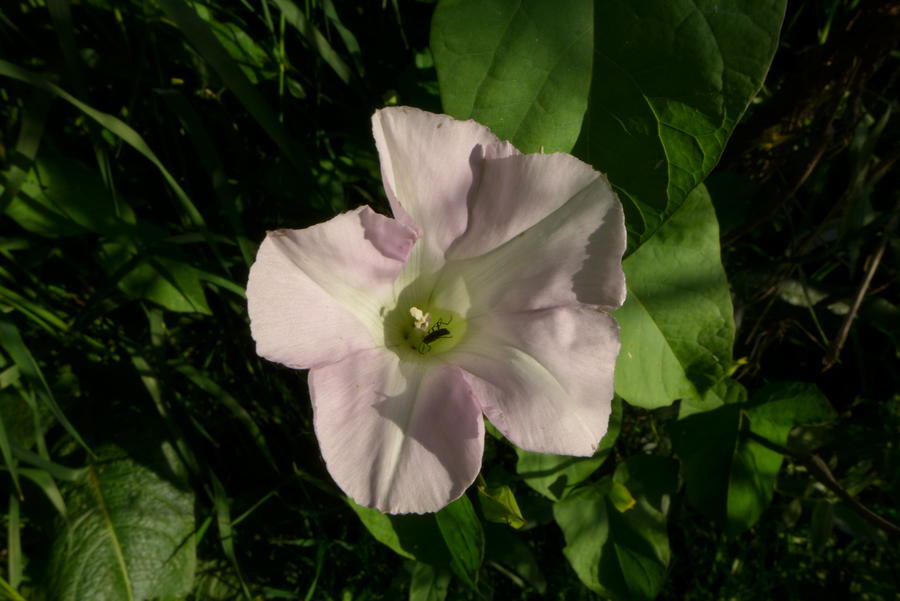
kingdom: Plantae
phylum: Tracheophyta
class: Magnoliopsida
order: Solanales
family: Convolvulaceae
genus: Calystegia
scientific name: Calystegia sepium
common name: Hedge bindweed
